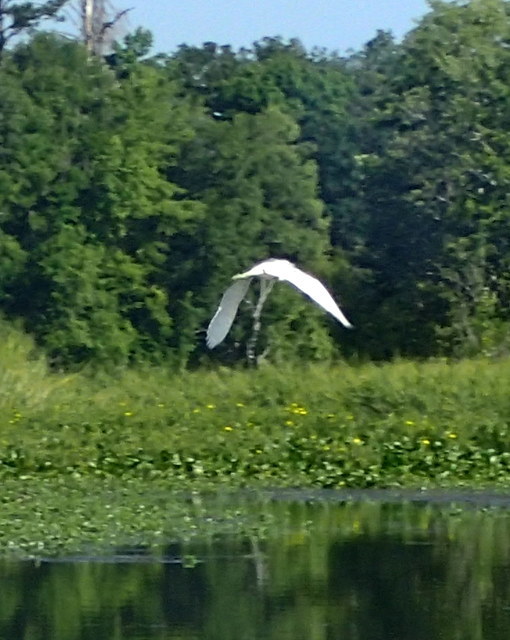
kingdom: Animalia
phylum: Chordata
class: Aves
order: Pelecaniformes
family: Ardeidae
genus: Egretta
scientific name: Egretta caerulea
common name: Little blue heron
